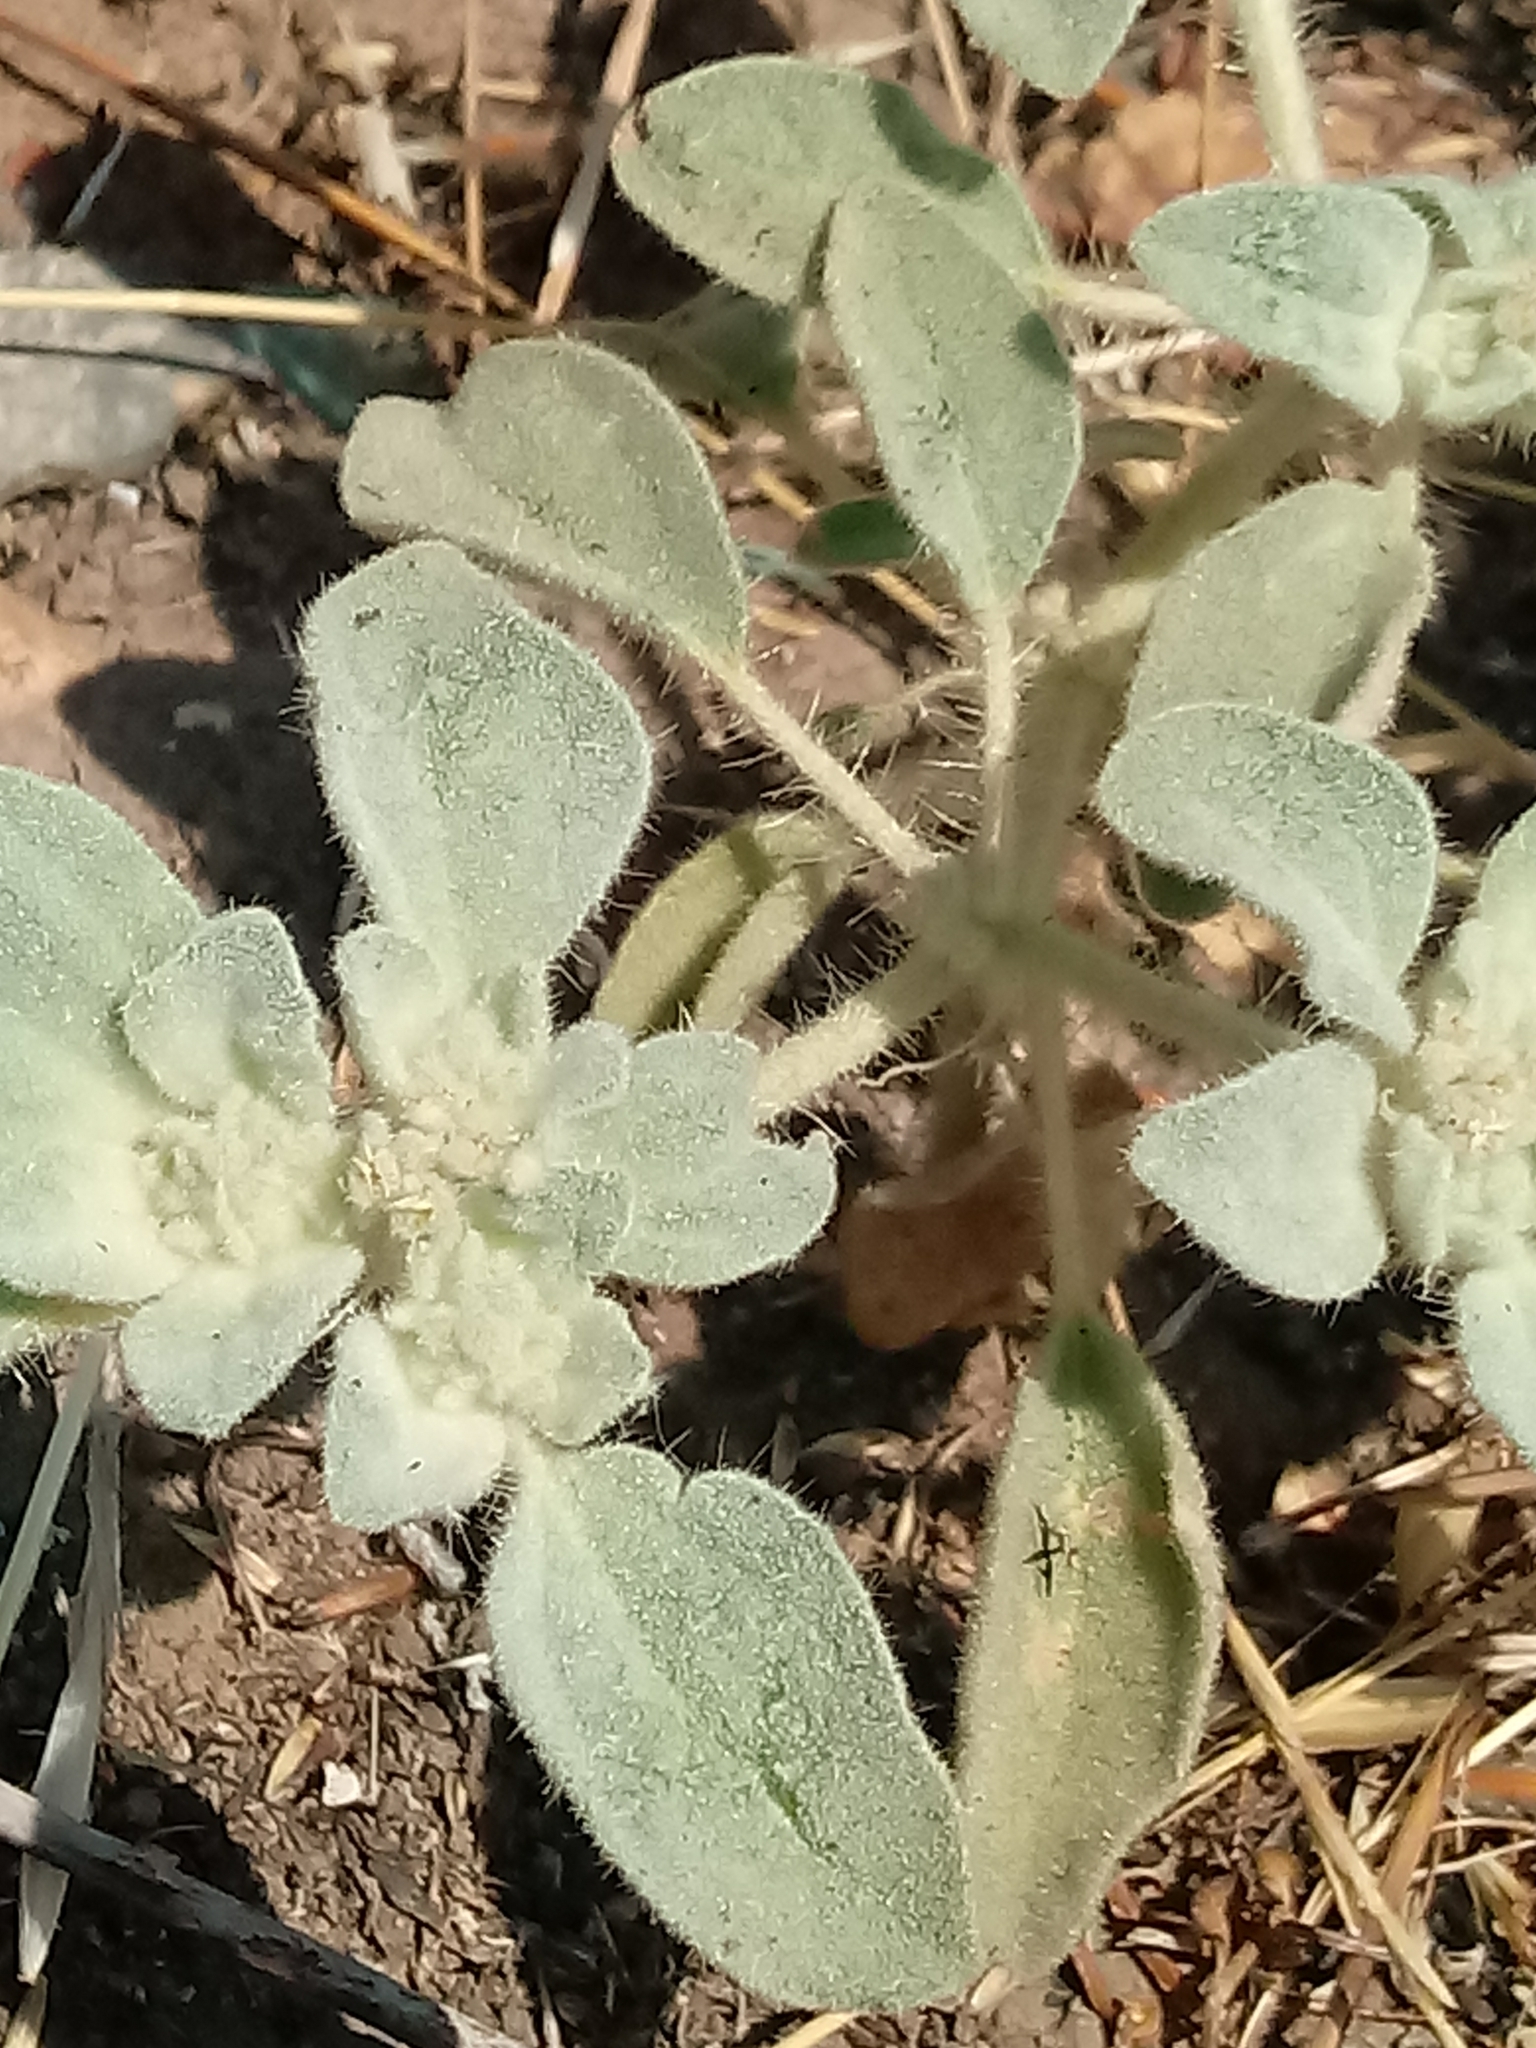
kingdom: Plantae
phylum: Tracheophyta
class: Magnoliopsida
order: Malpighiales
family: Euphorbiaceae
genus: Croton
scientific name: Croton setiger
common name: Dove weed
